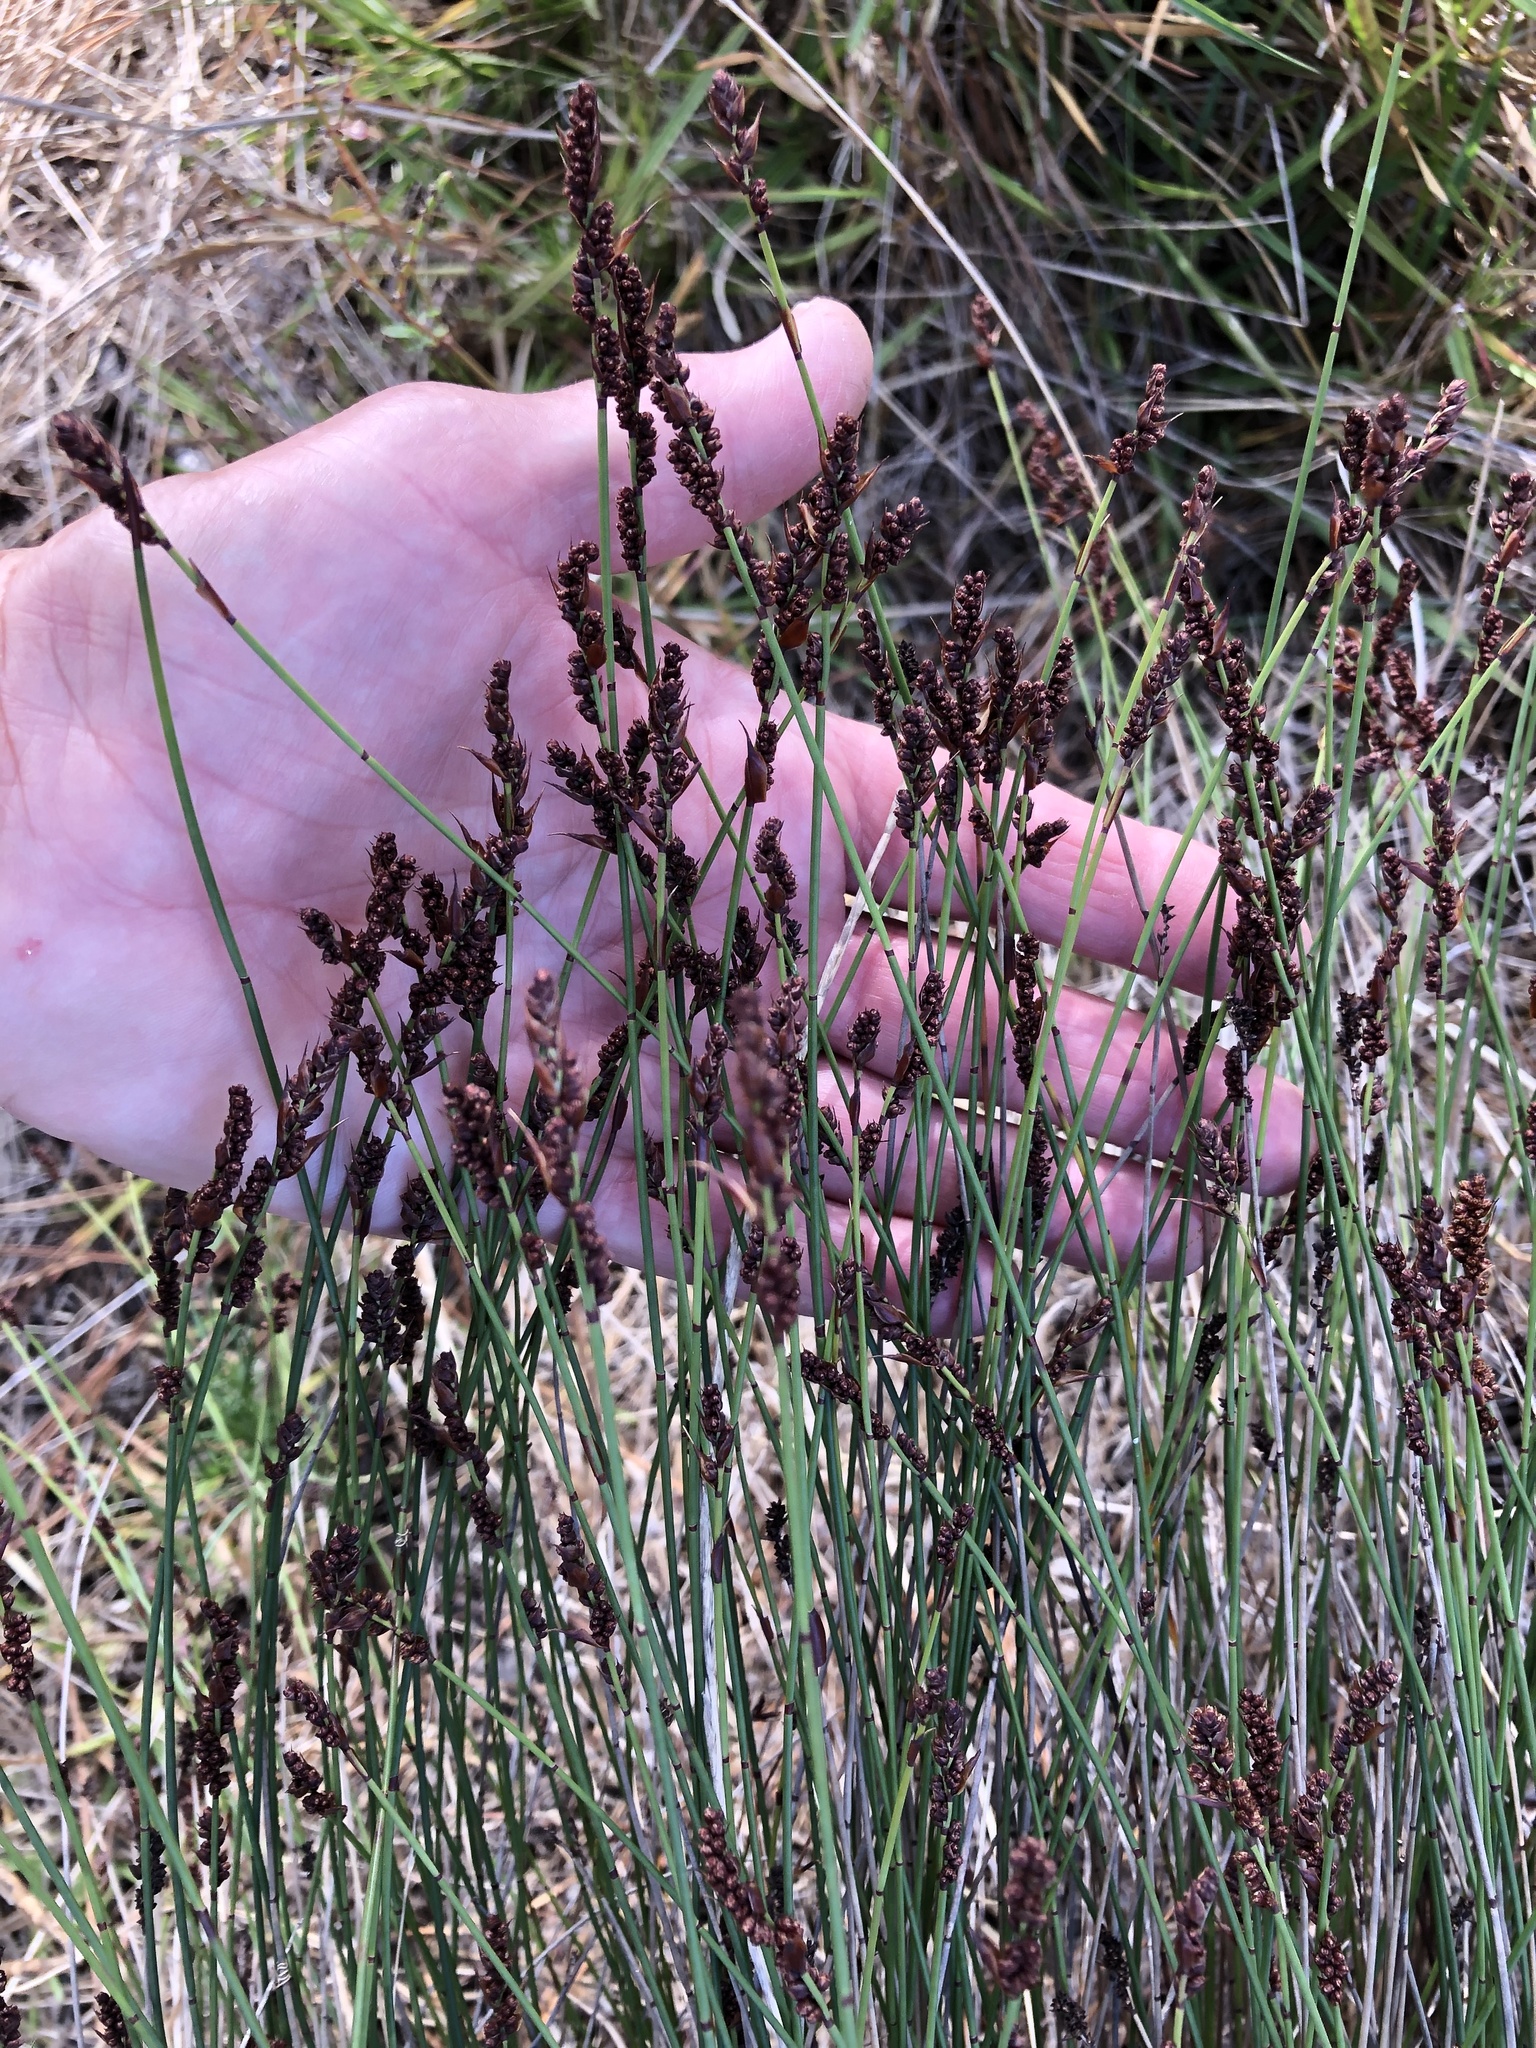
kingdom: Plantae
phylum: Tracheophyta
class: Liliopsida
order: Poales
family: Restionaceae
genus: Elegia
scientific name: Elegia nuda
